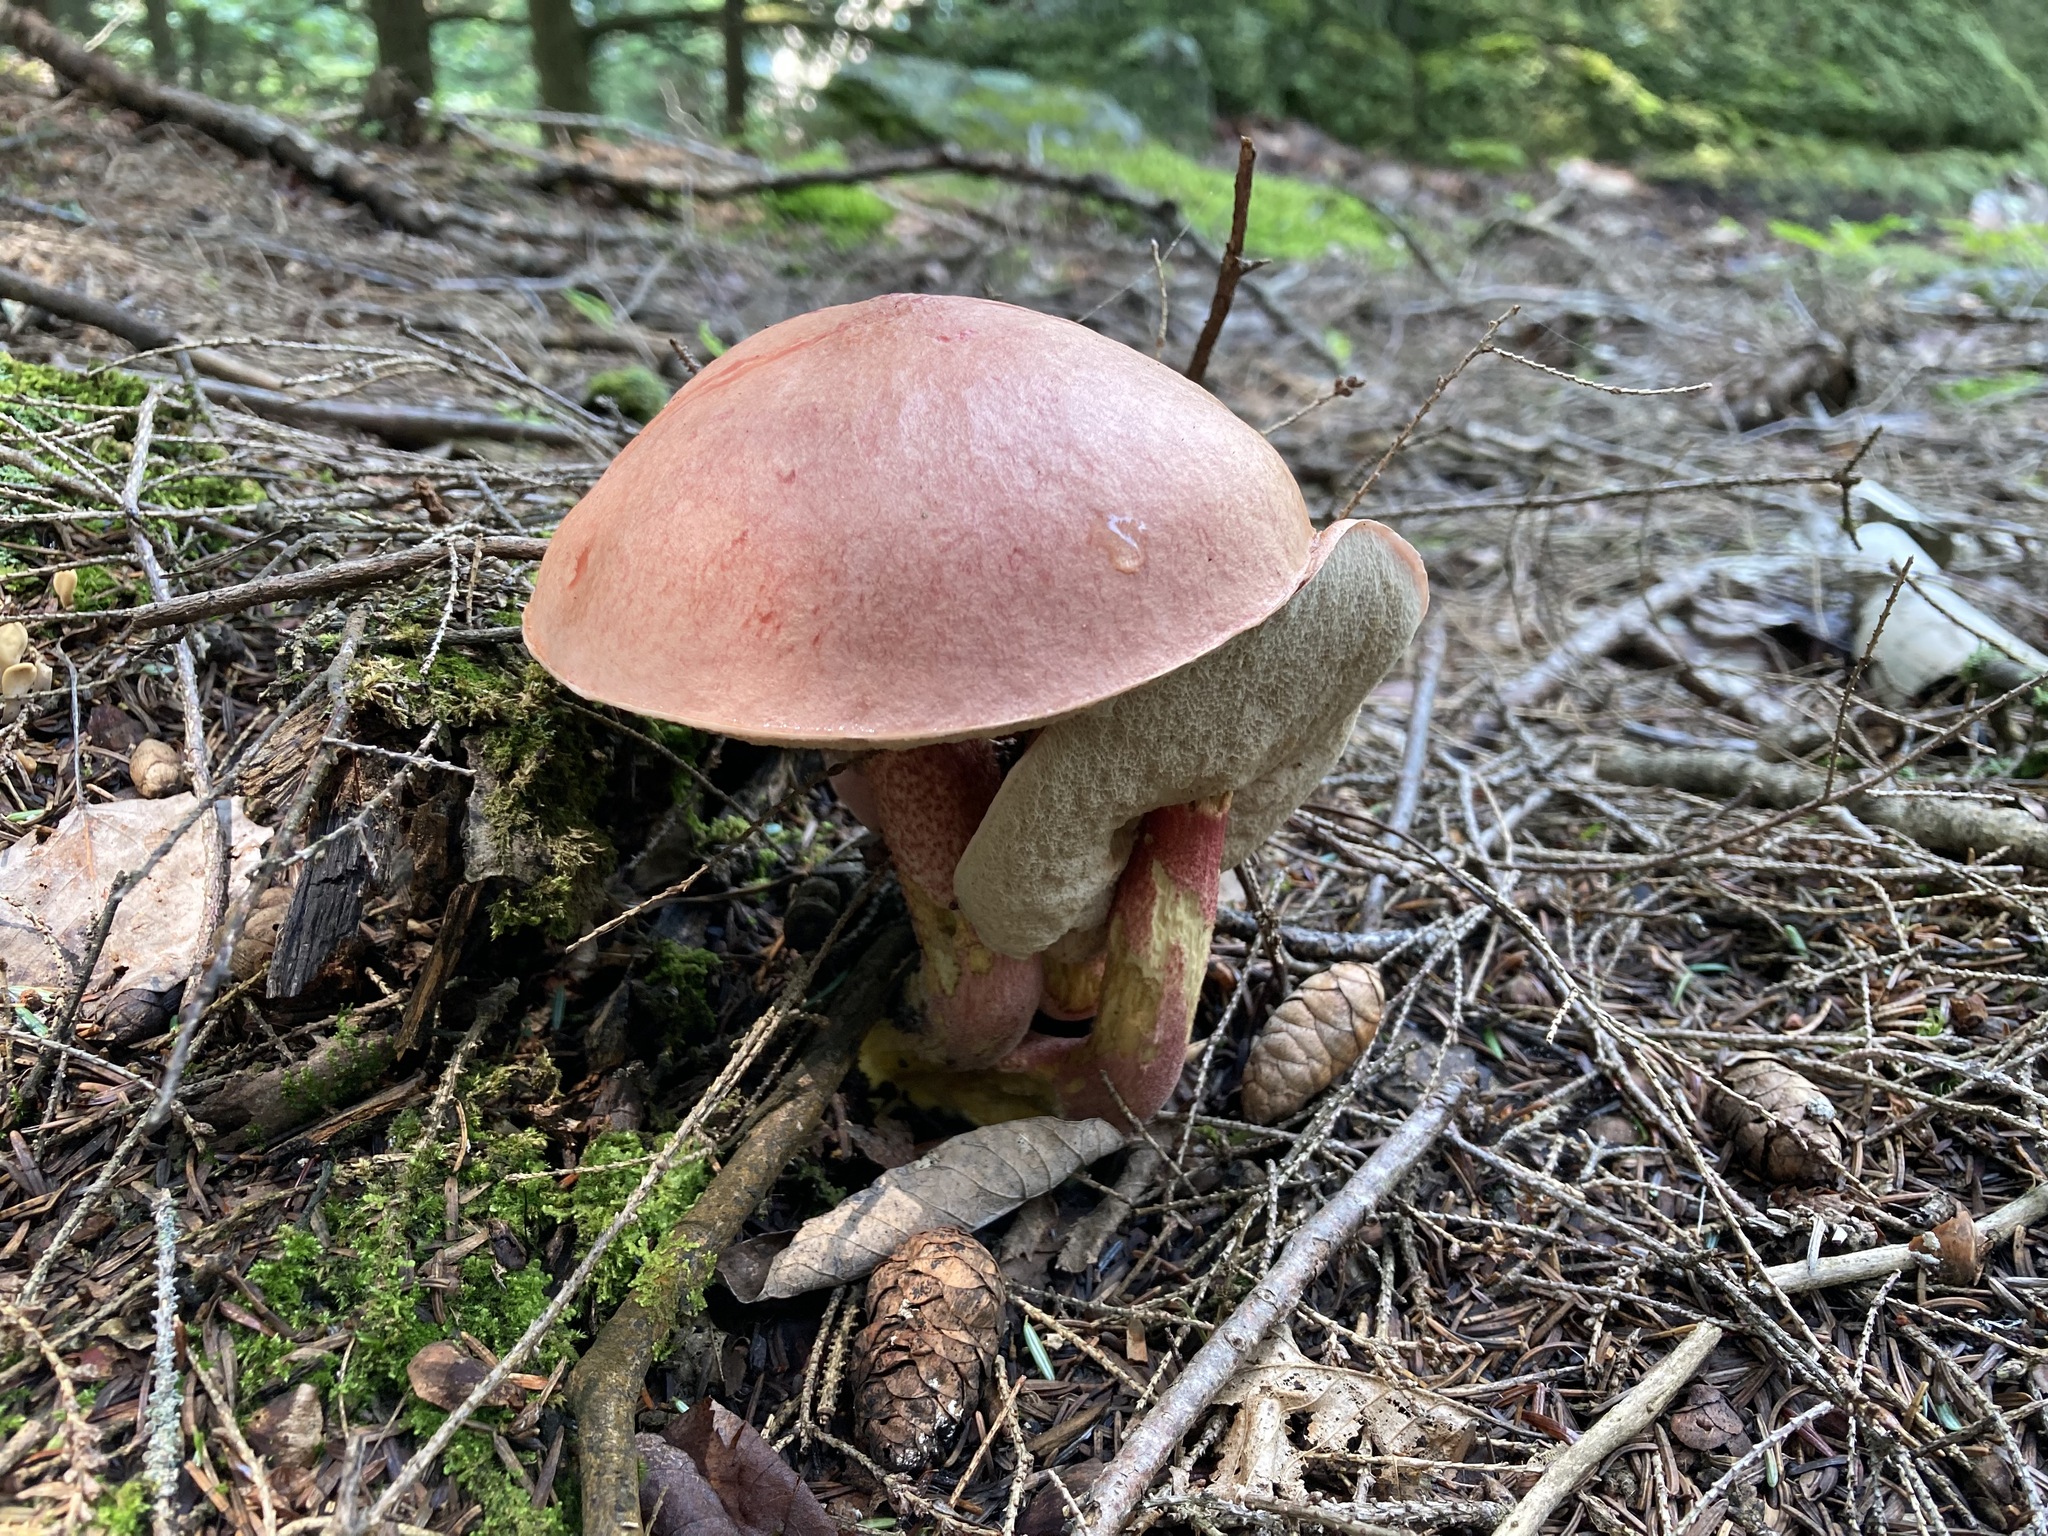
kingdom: Fungi
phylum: Basidiomycota
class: Agaricomycetes
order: Boletales
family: Boletaceae
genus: Harrya
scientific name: Harrya chromipes
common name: Chrome-footed bolete
